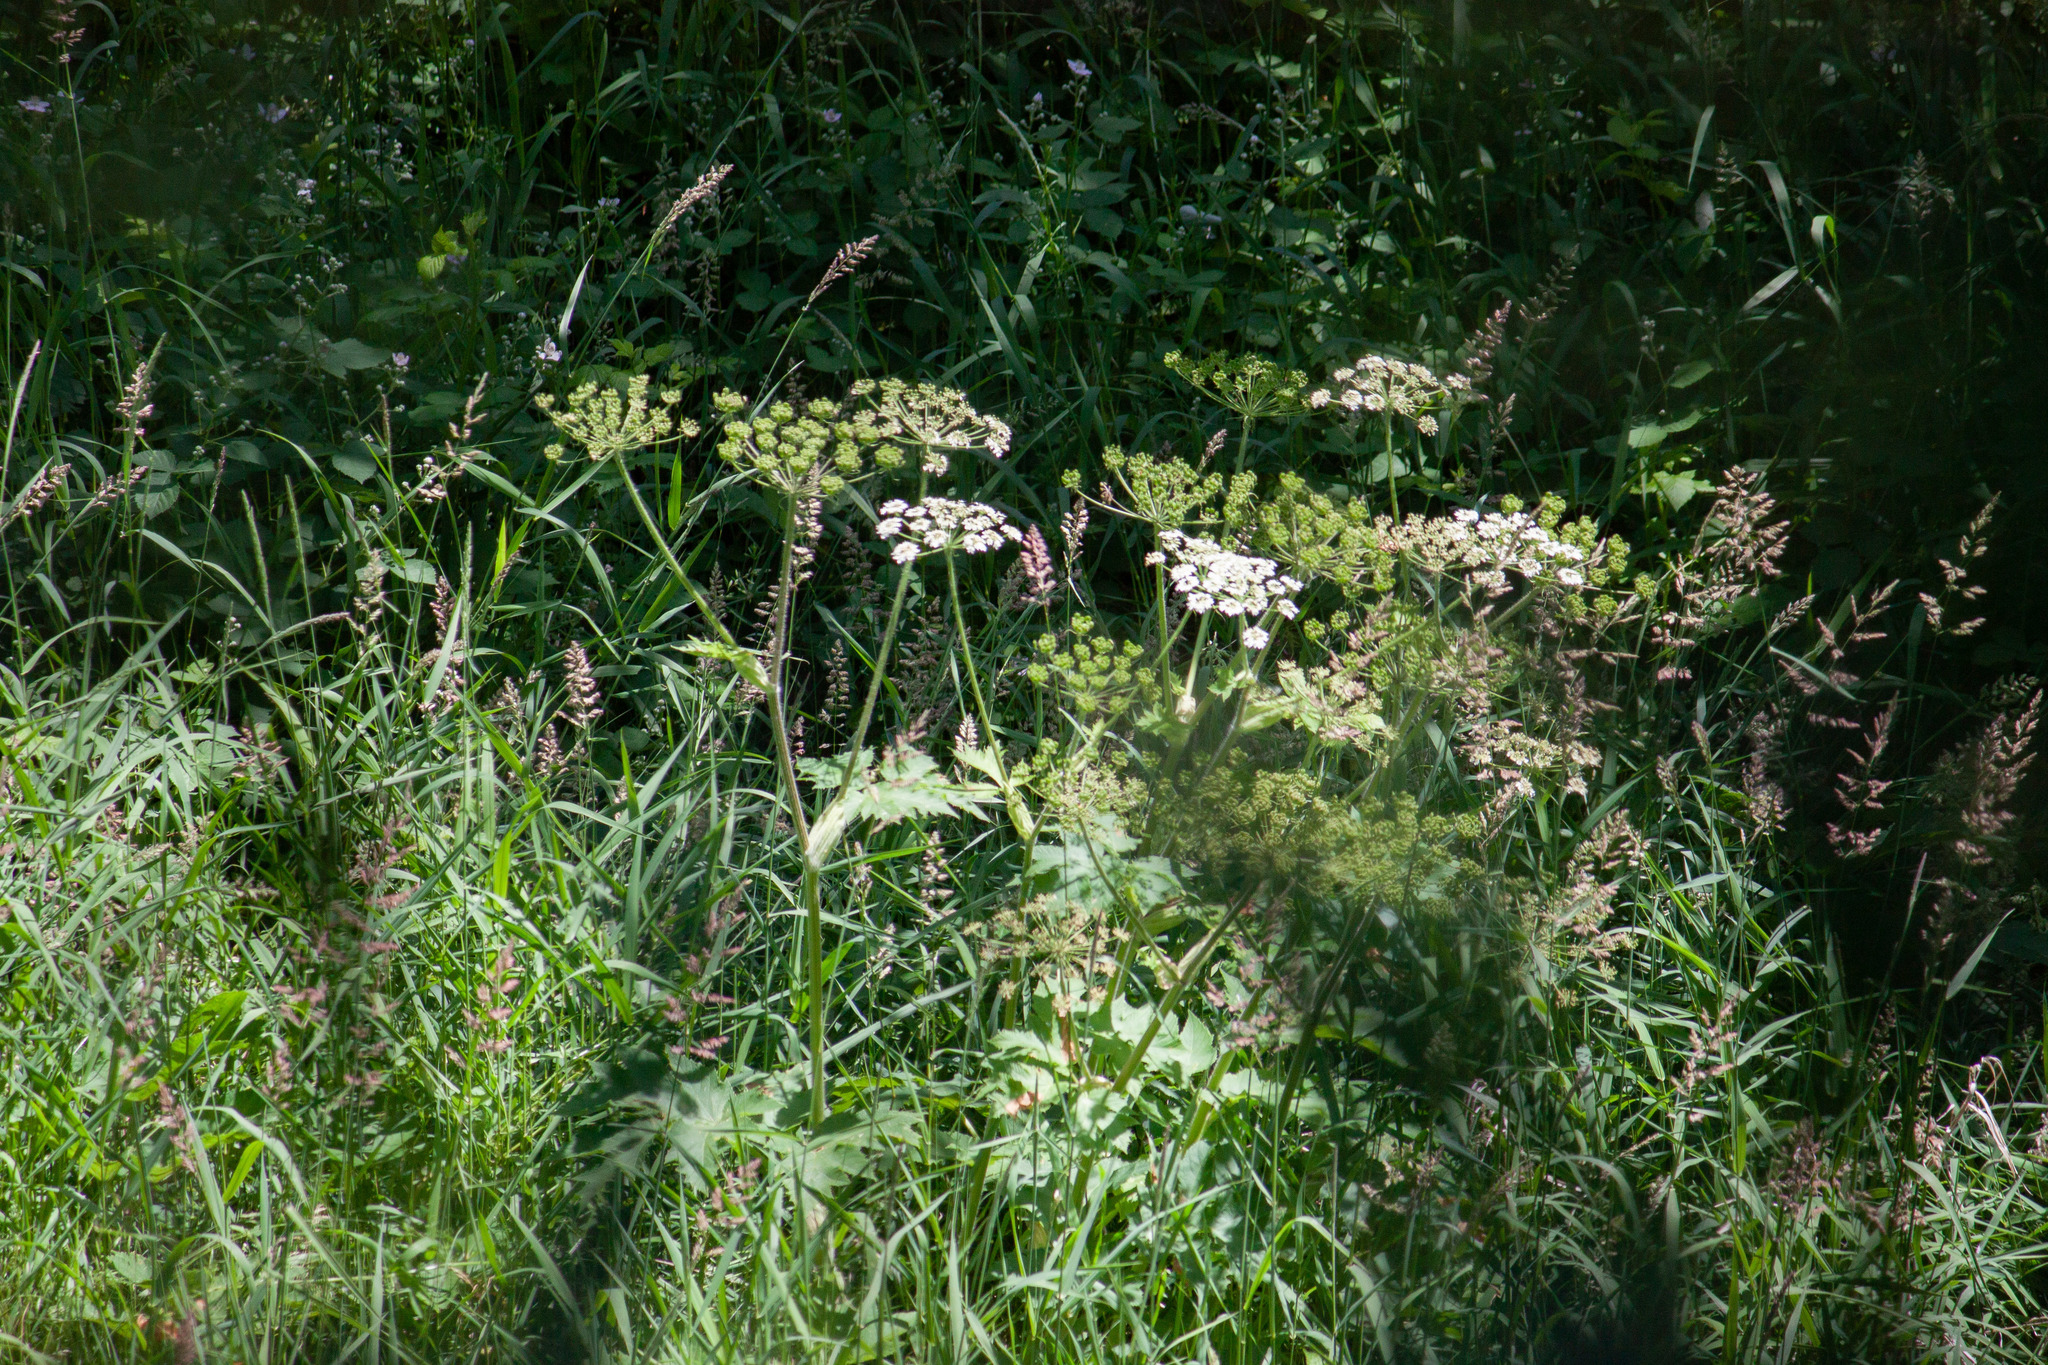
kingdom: Plantae
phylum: Tracheophyta
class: Magnoliopsida
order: Apiales
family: Apiaceae
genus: Heracleum
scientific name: Heracleum maximum
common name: American cow parsnip
